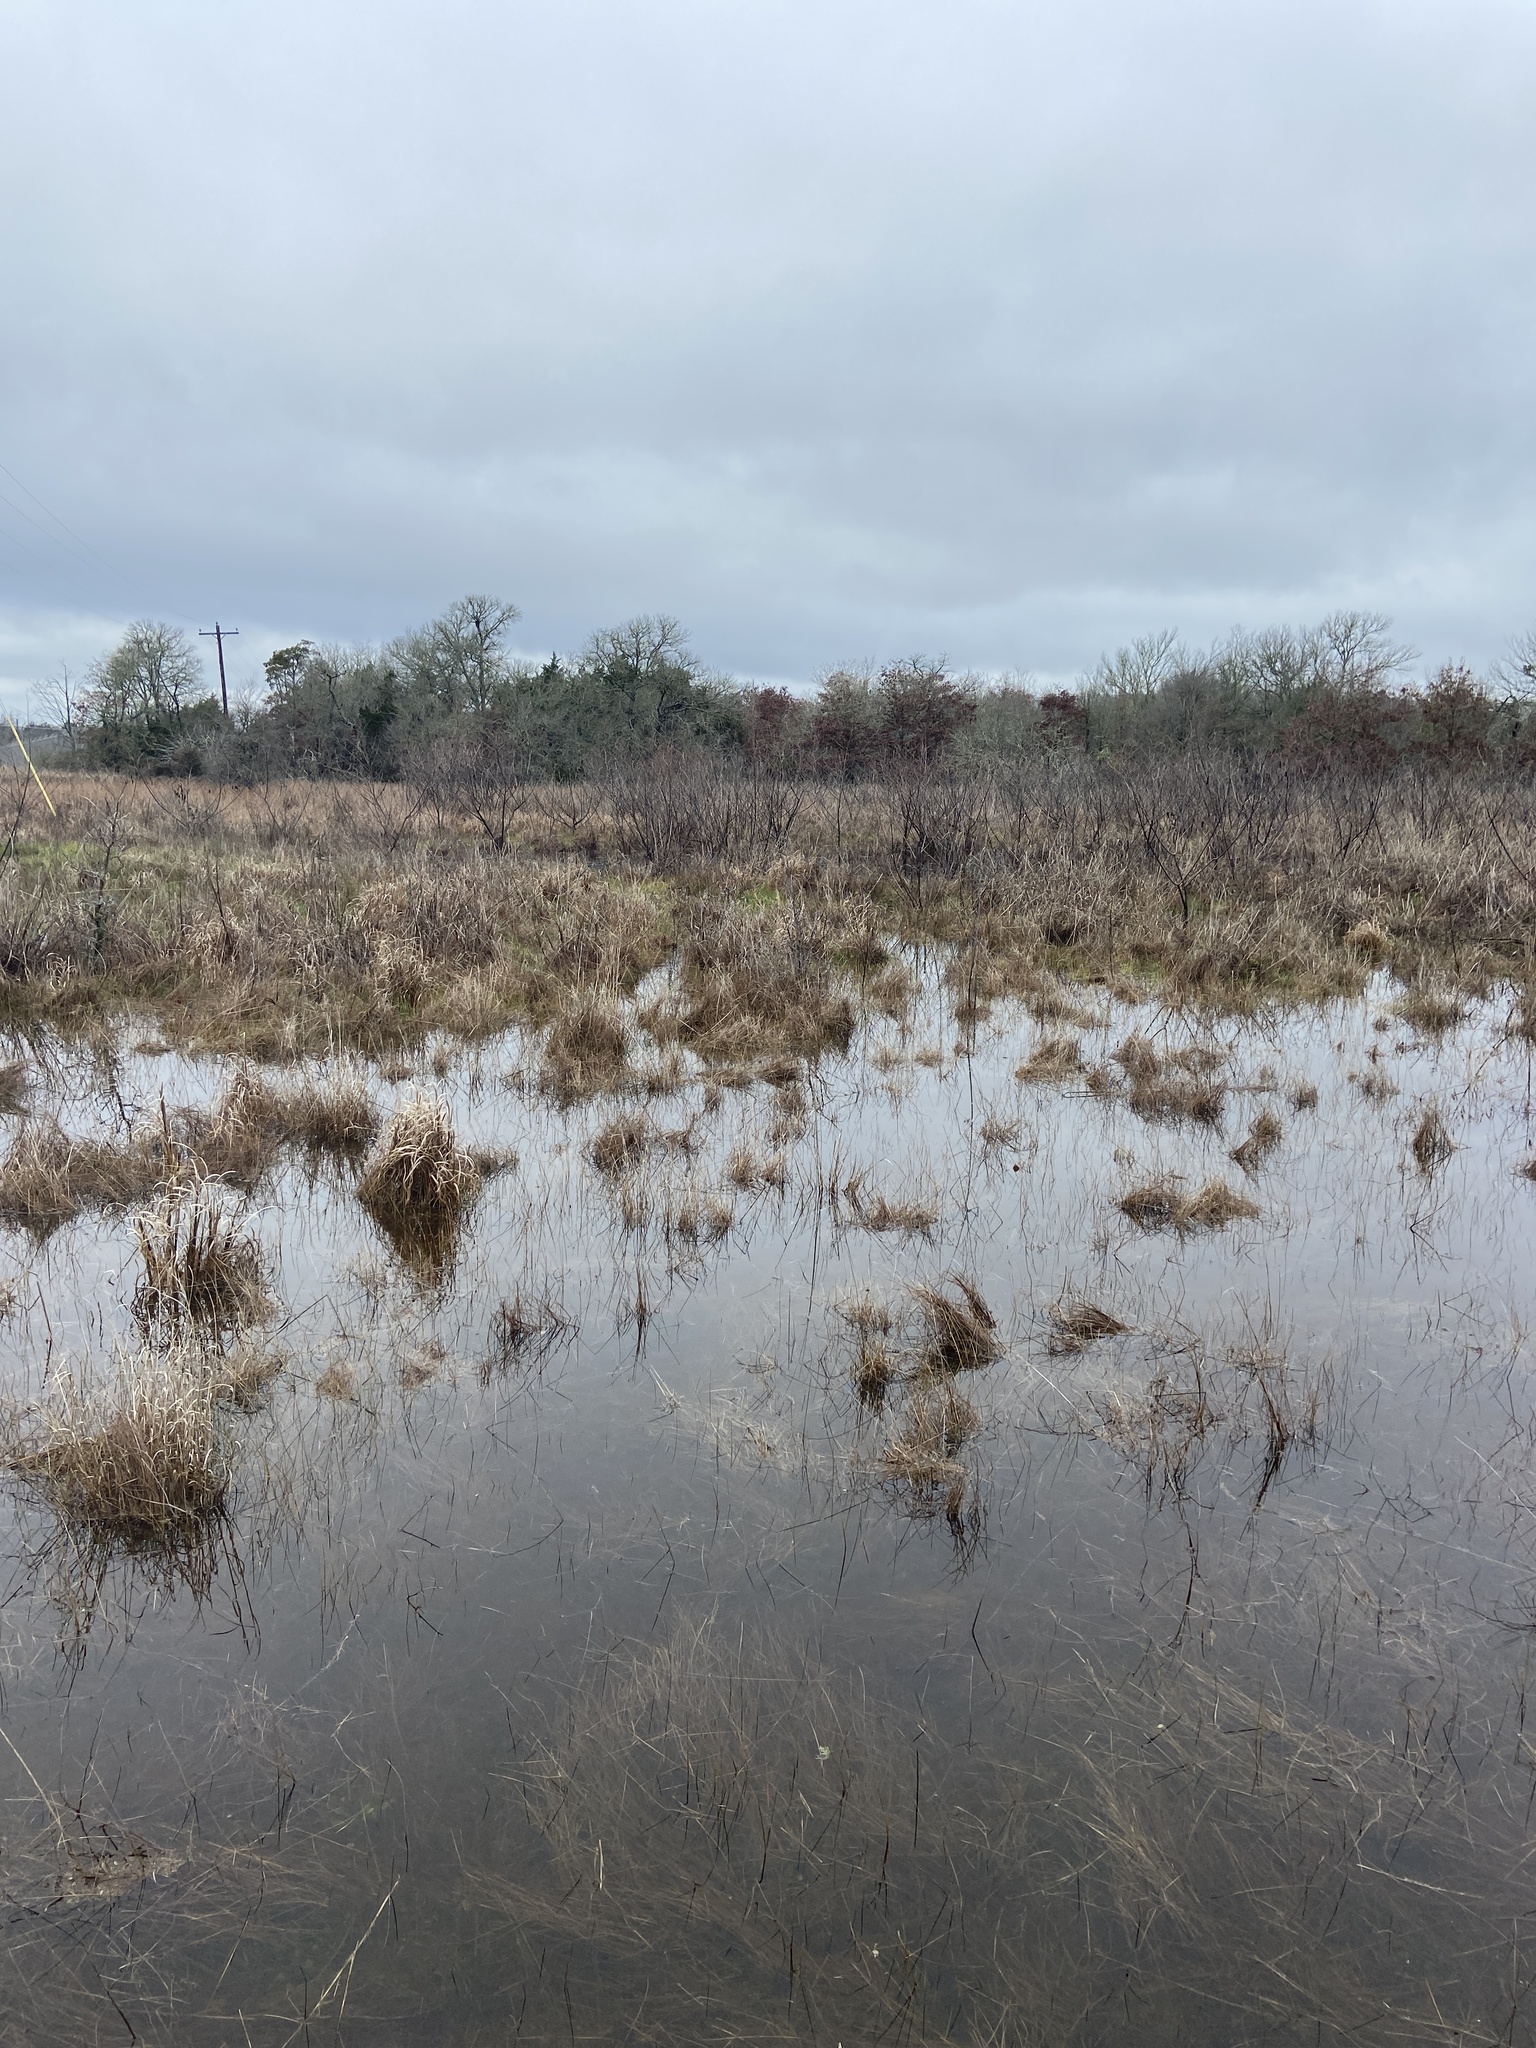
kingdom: Animalia
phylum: Chordata
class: Amphibia
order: Anura
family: Ranidae
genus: Lithobates
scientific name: Lithobates sphenocephalus
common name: Southern leopard frog
